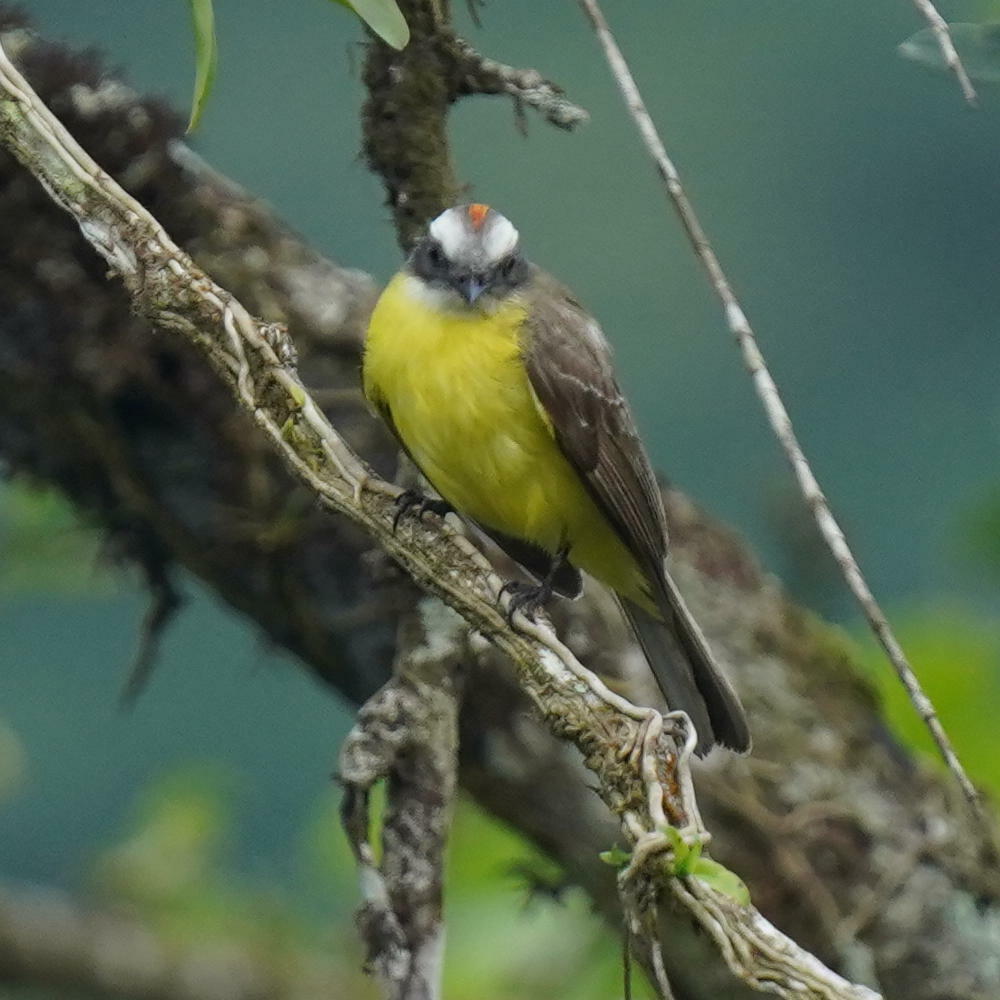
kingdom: Animalia
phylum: Chordata
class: Aves
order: Passeriformes
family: Tyrannidae
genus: Myiozetetes
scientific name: Myiozetetes similis
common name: Social flycatcher
